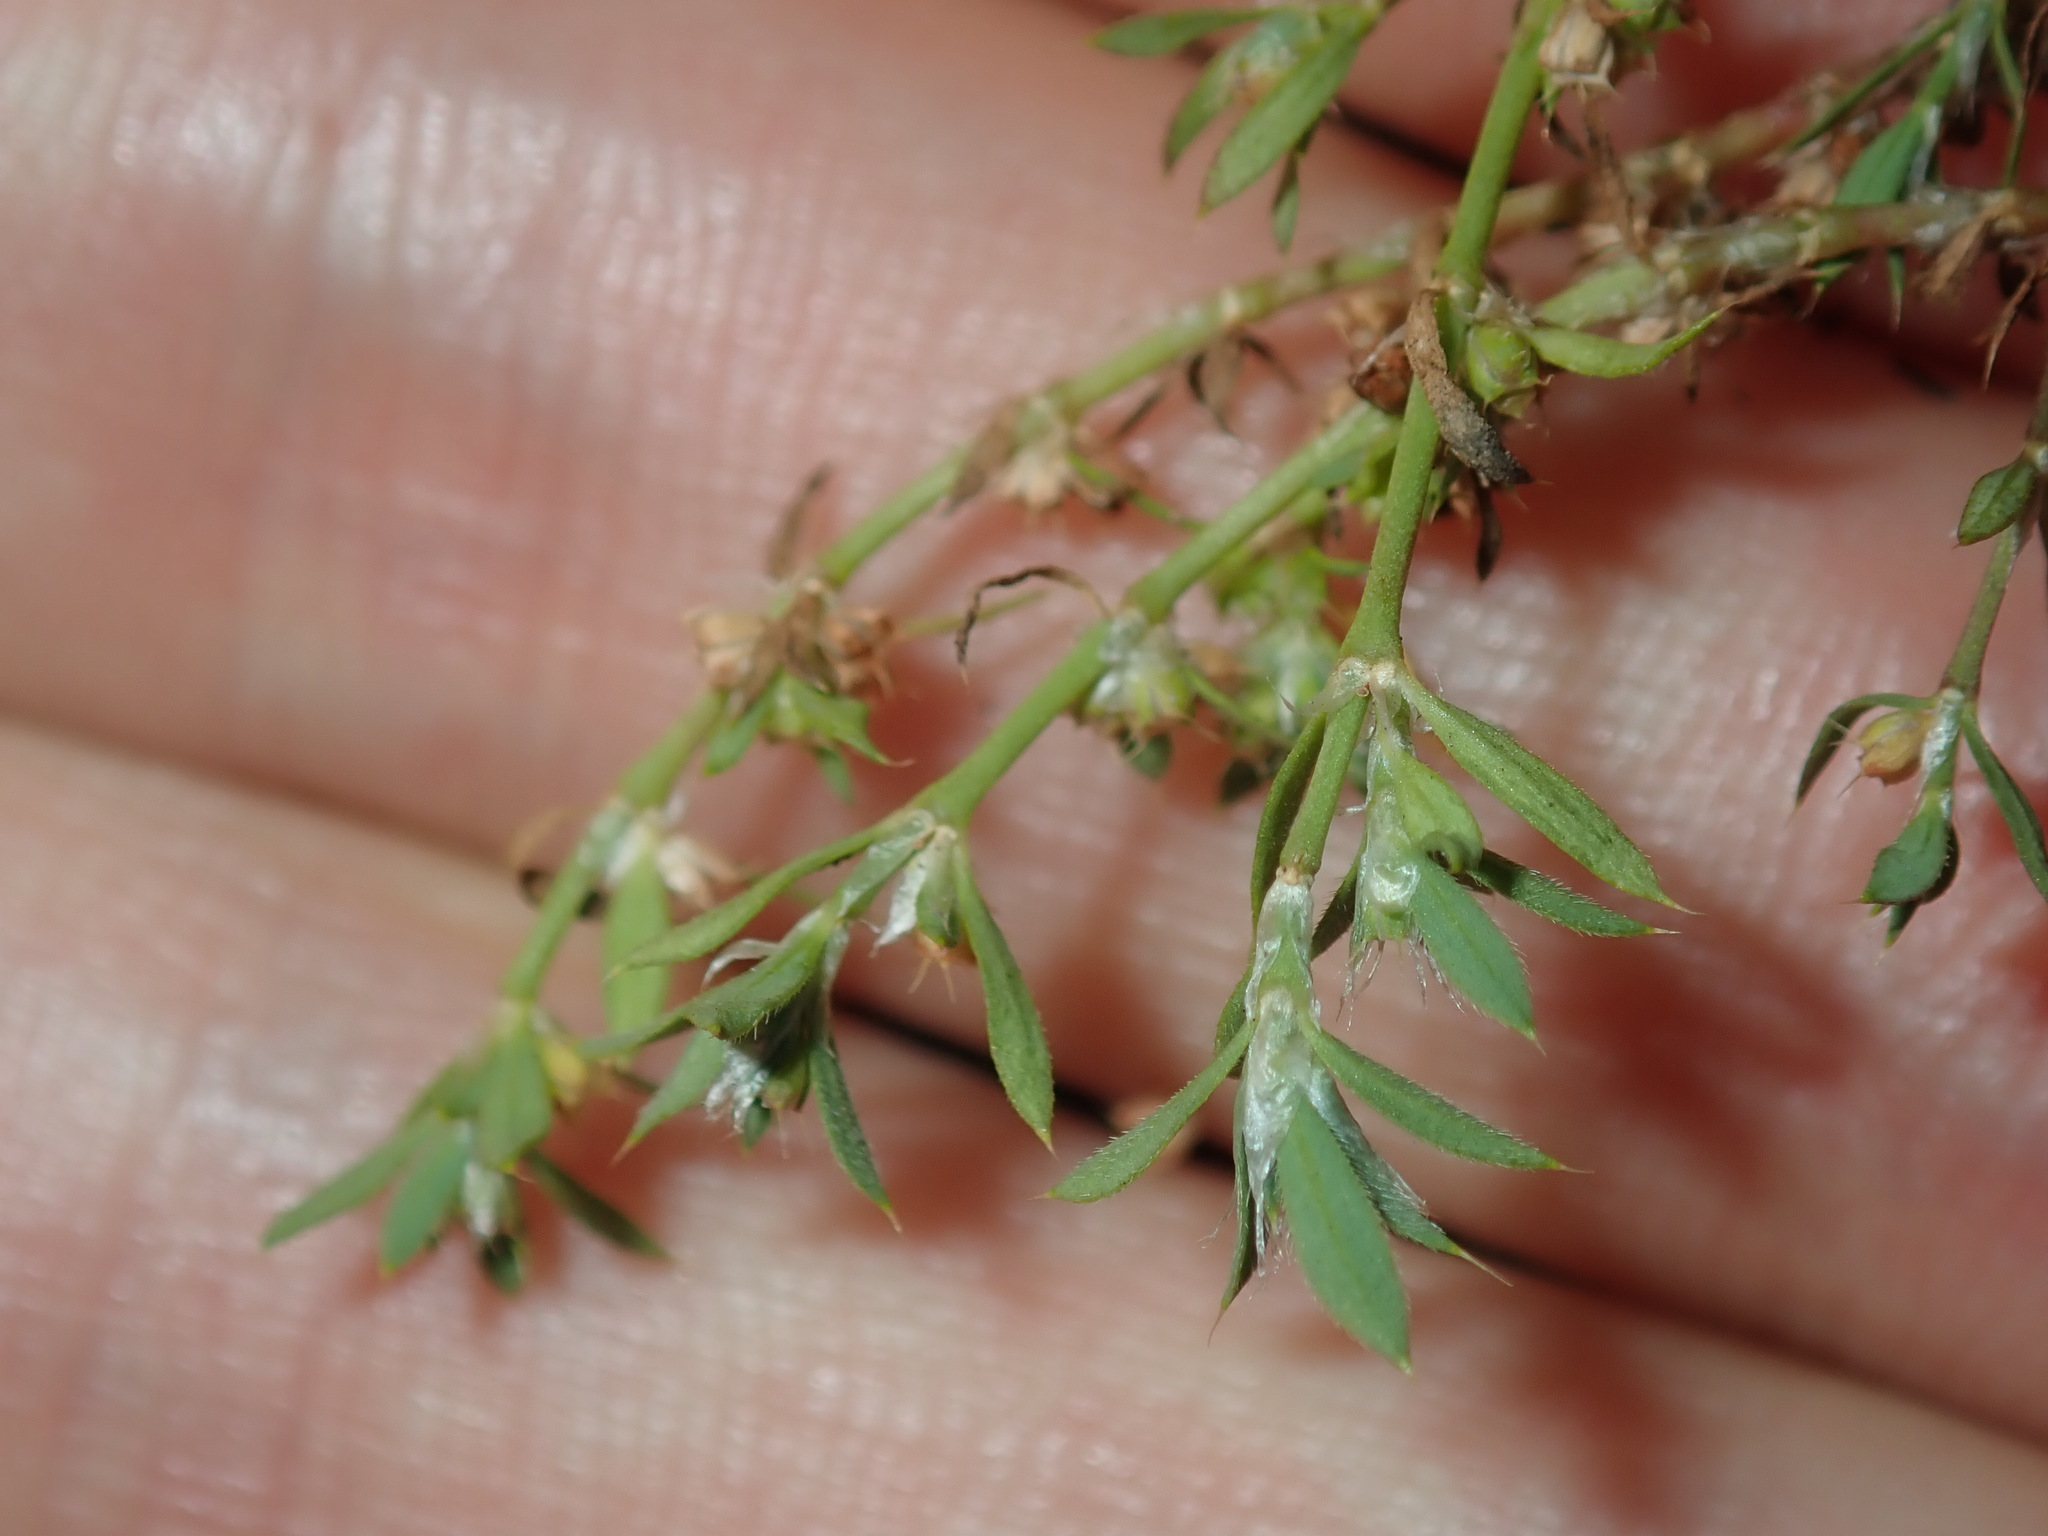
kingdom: Plantae
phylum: Tracheophyta
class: Magnoliopsida
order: Caryophyllales
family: Caryophyllaceae
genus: Paronychia
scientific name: Paronychia brasiliana
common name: Brazilian whitlow
